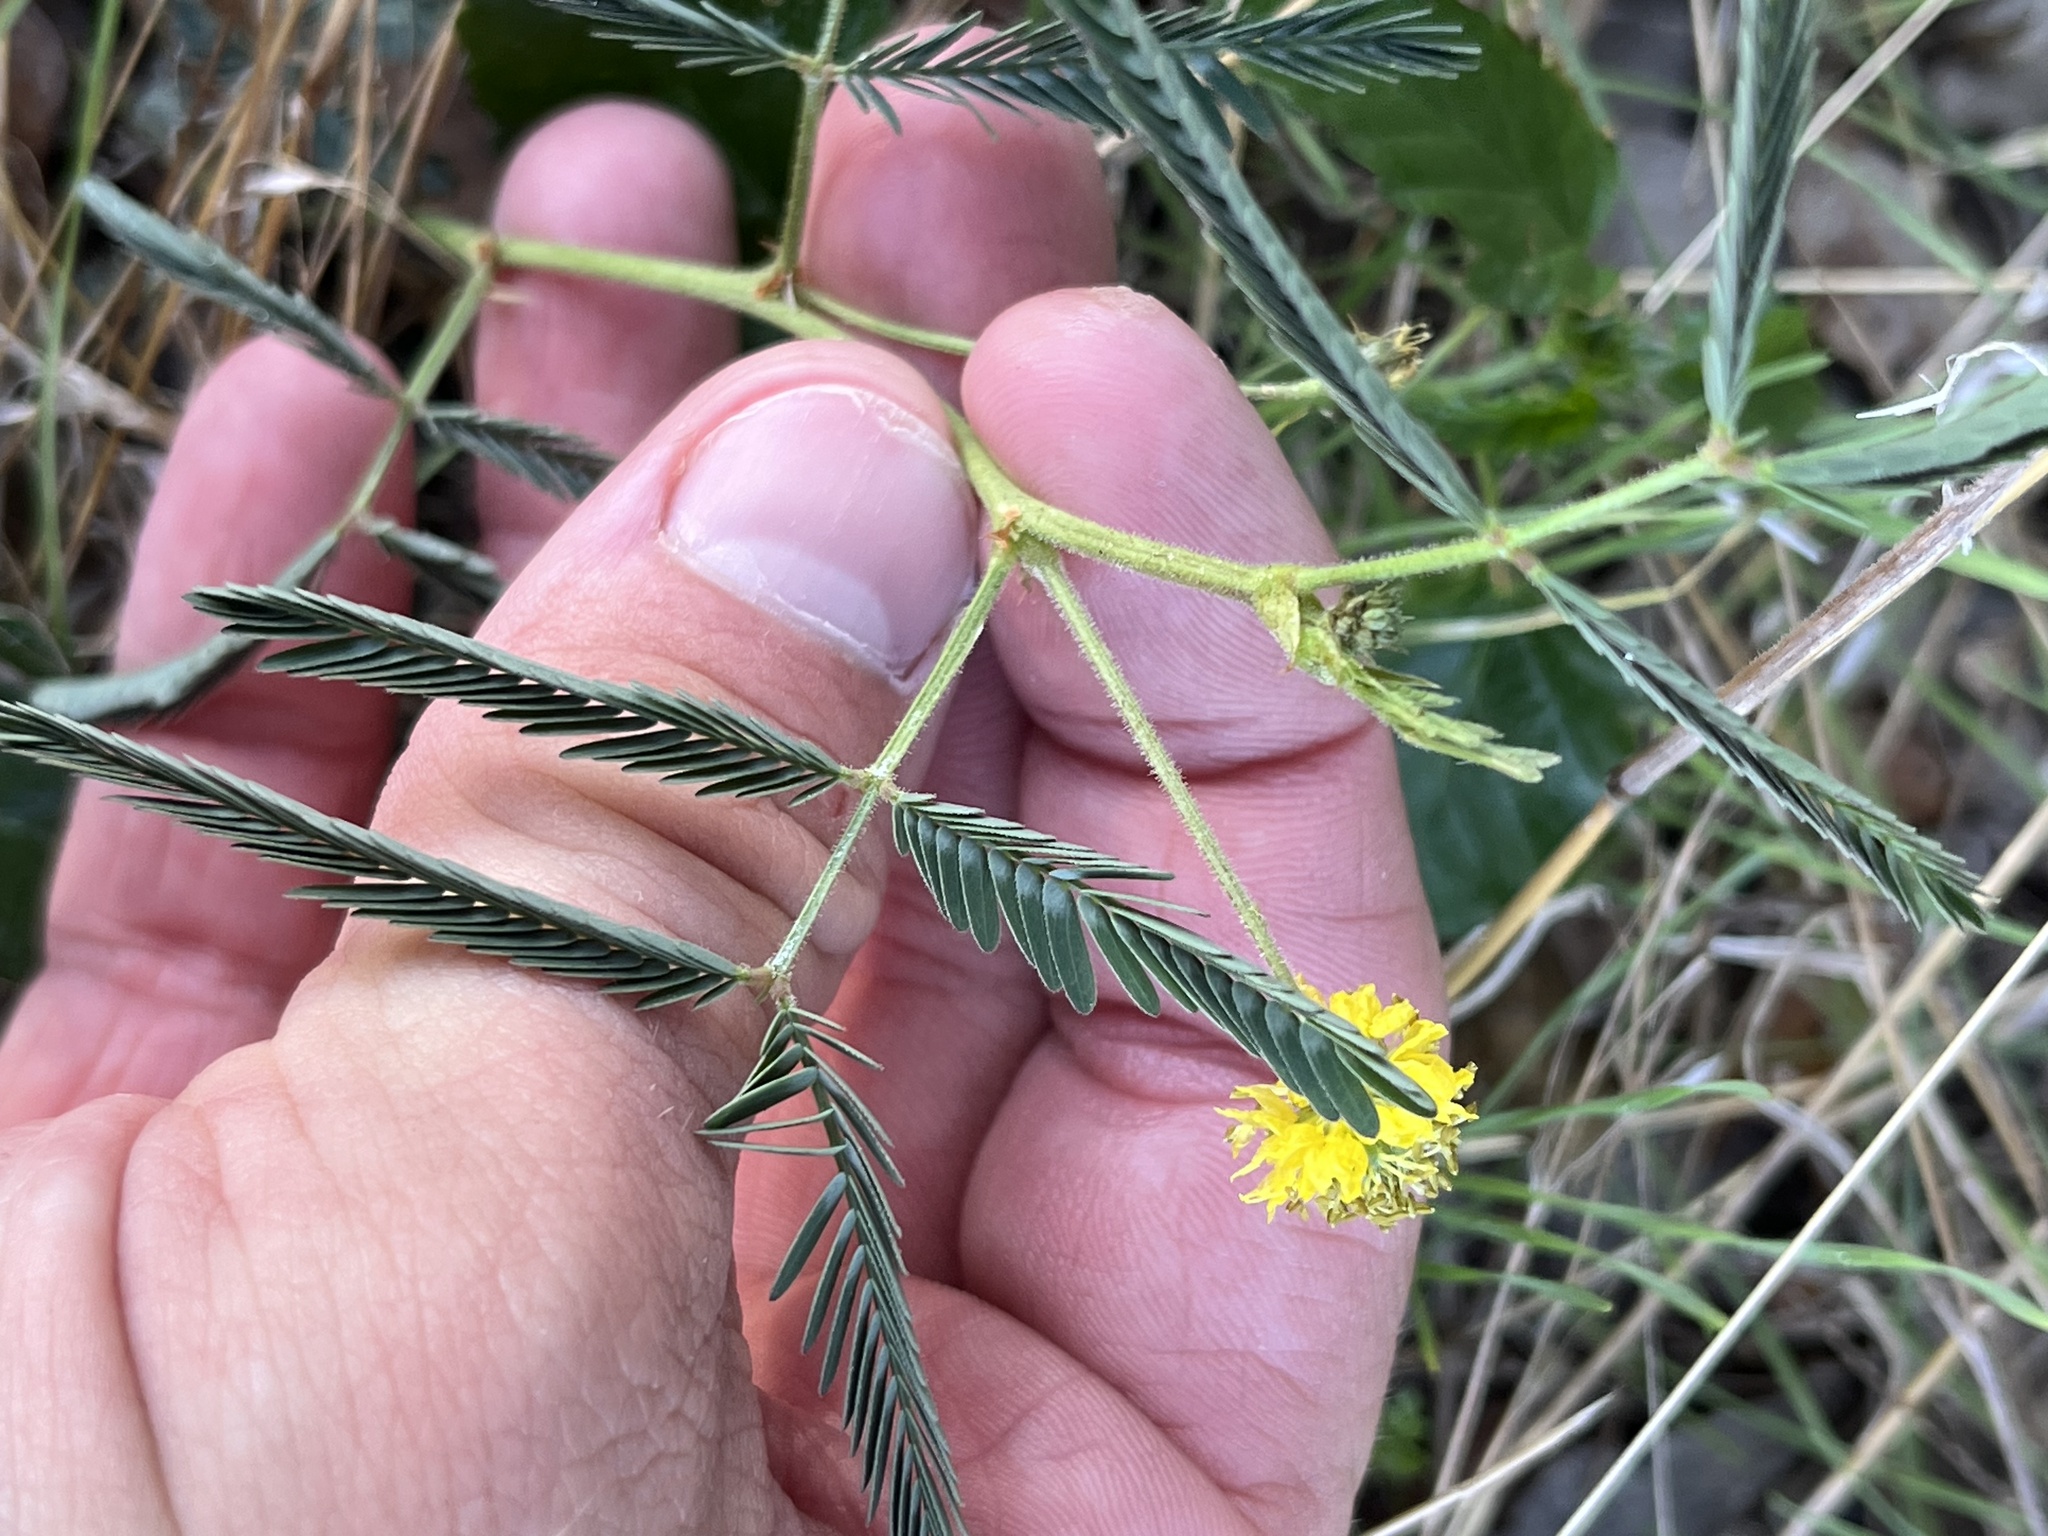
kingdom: Plantae
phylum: Tracheophyta
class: Magnoliopsida
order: Fabales
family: Fabaceae
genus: Neptunia
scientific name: Neptunia pubescens
